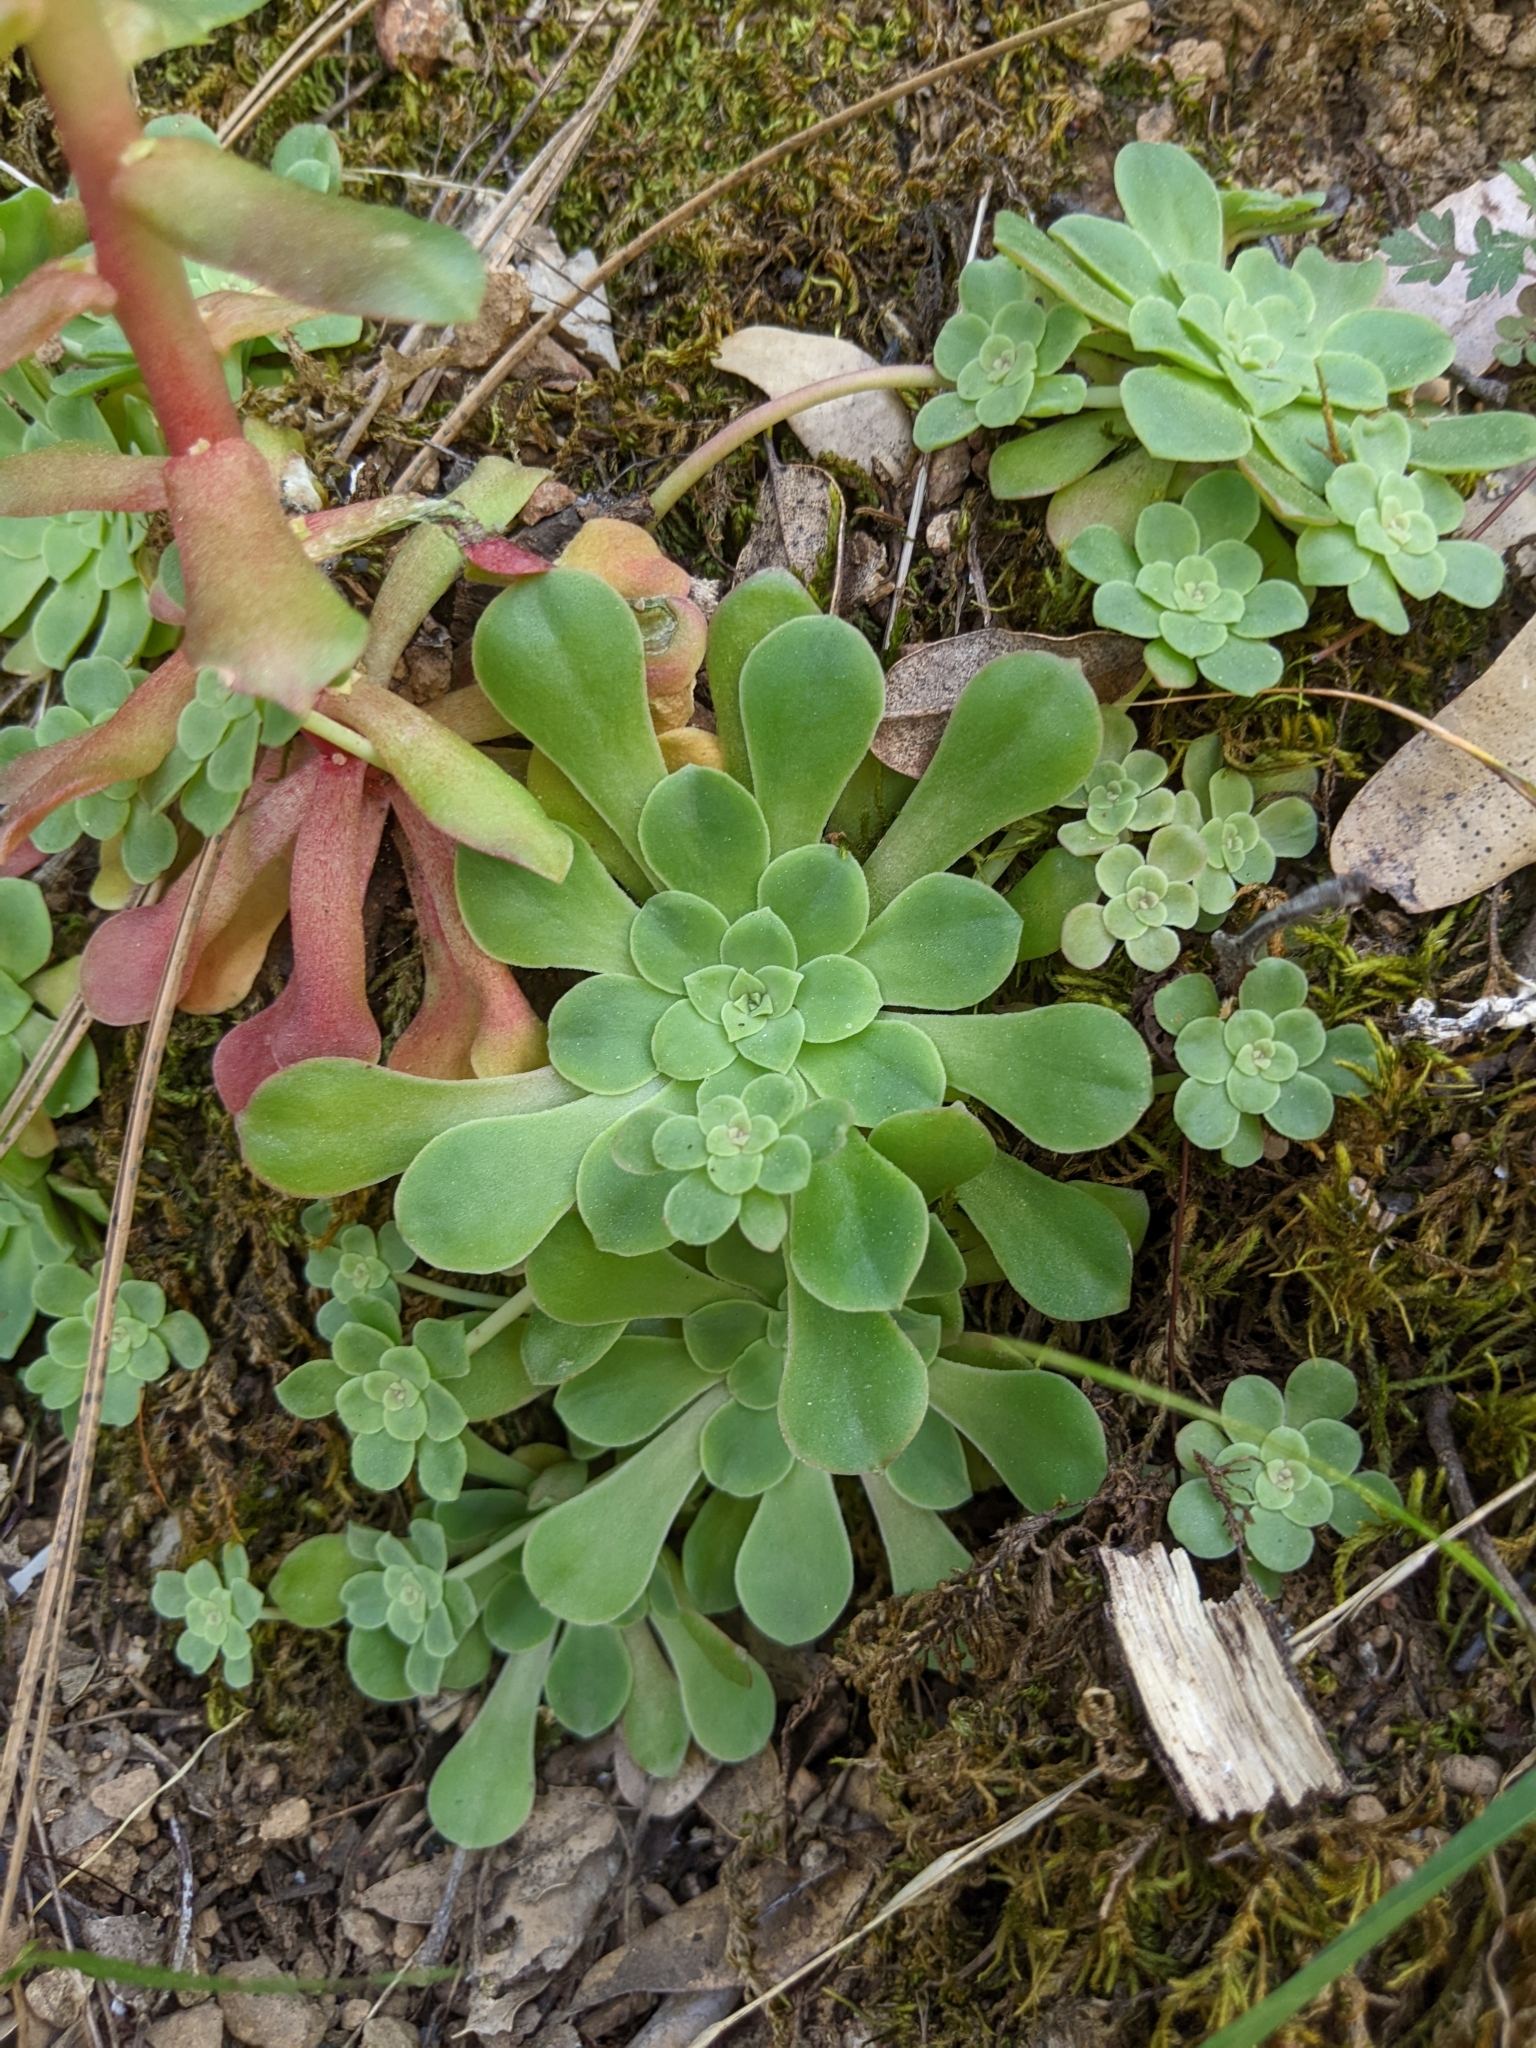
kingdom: Plantae
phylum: Tracheophyta
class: Magnoliopsida
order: Saxifragales
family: Crassulaceae
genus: Sedum
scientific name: Sedum spathulifolium
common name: Colorado stonecrop
